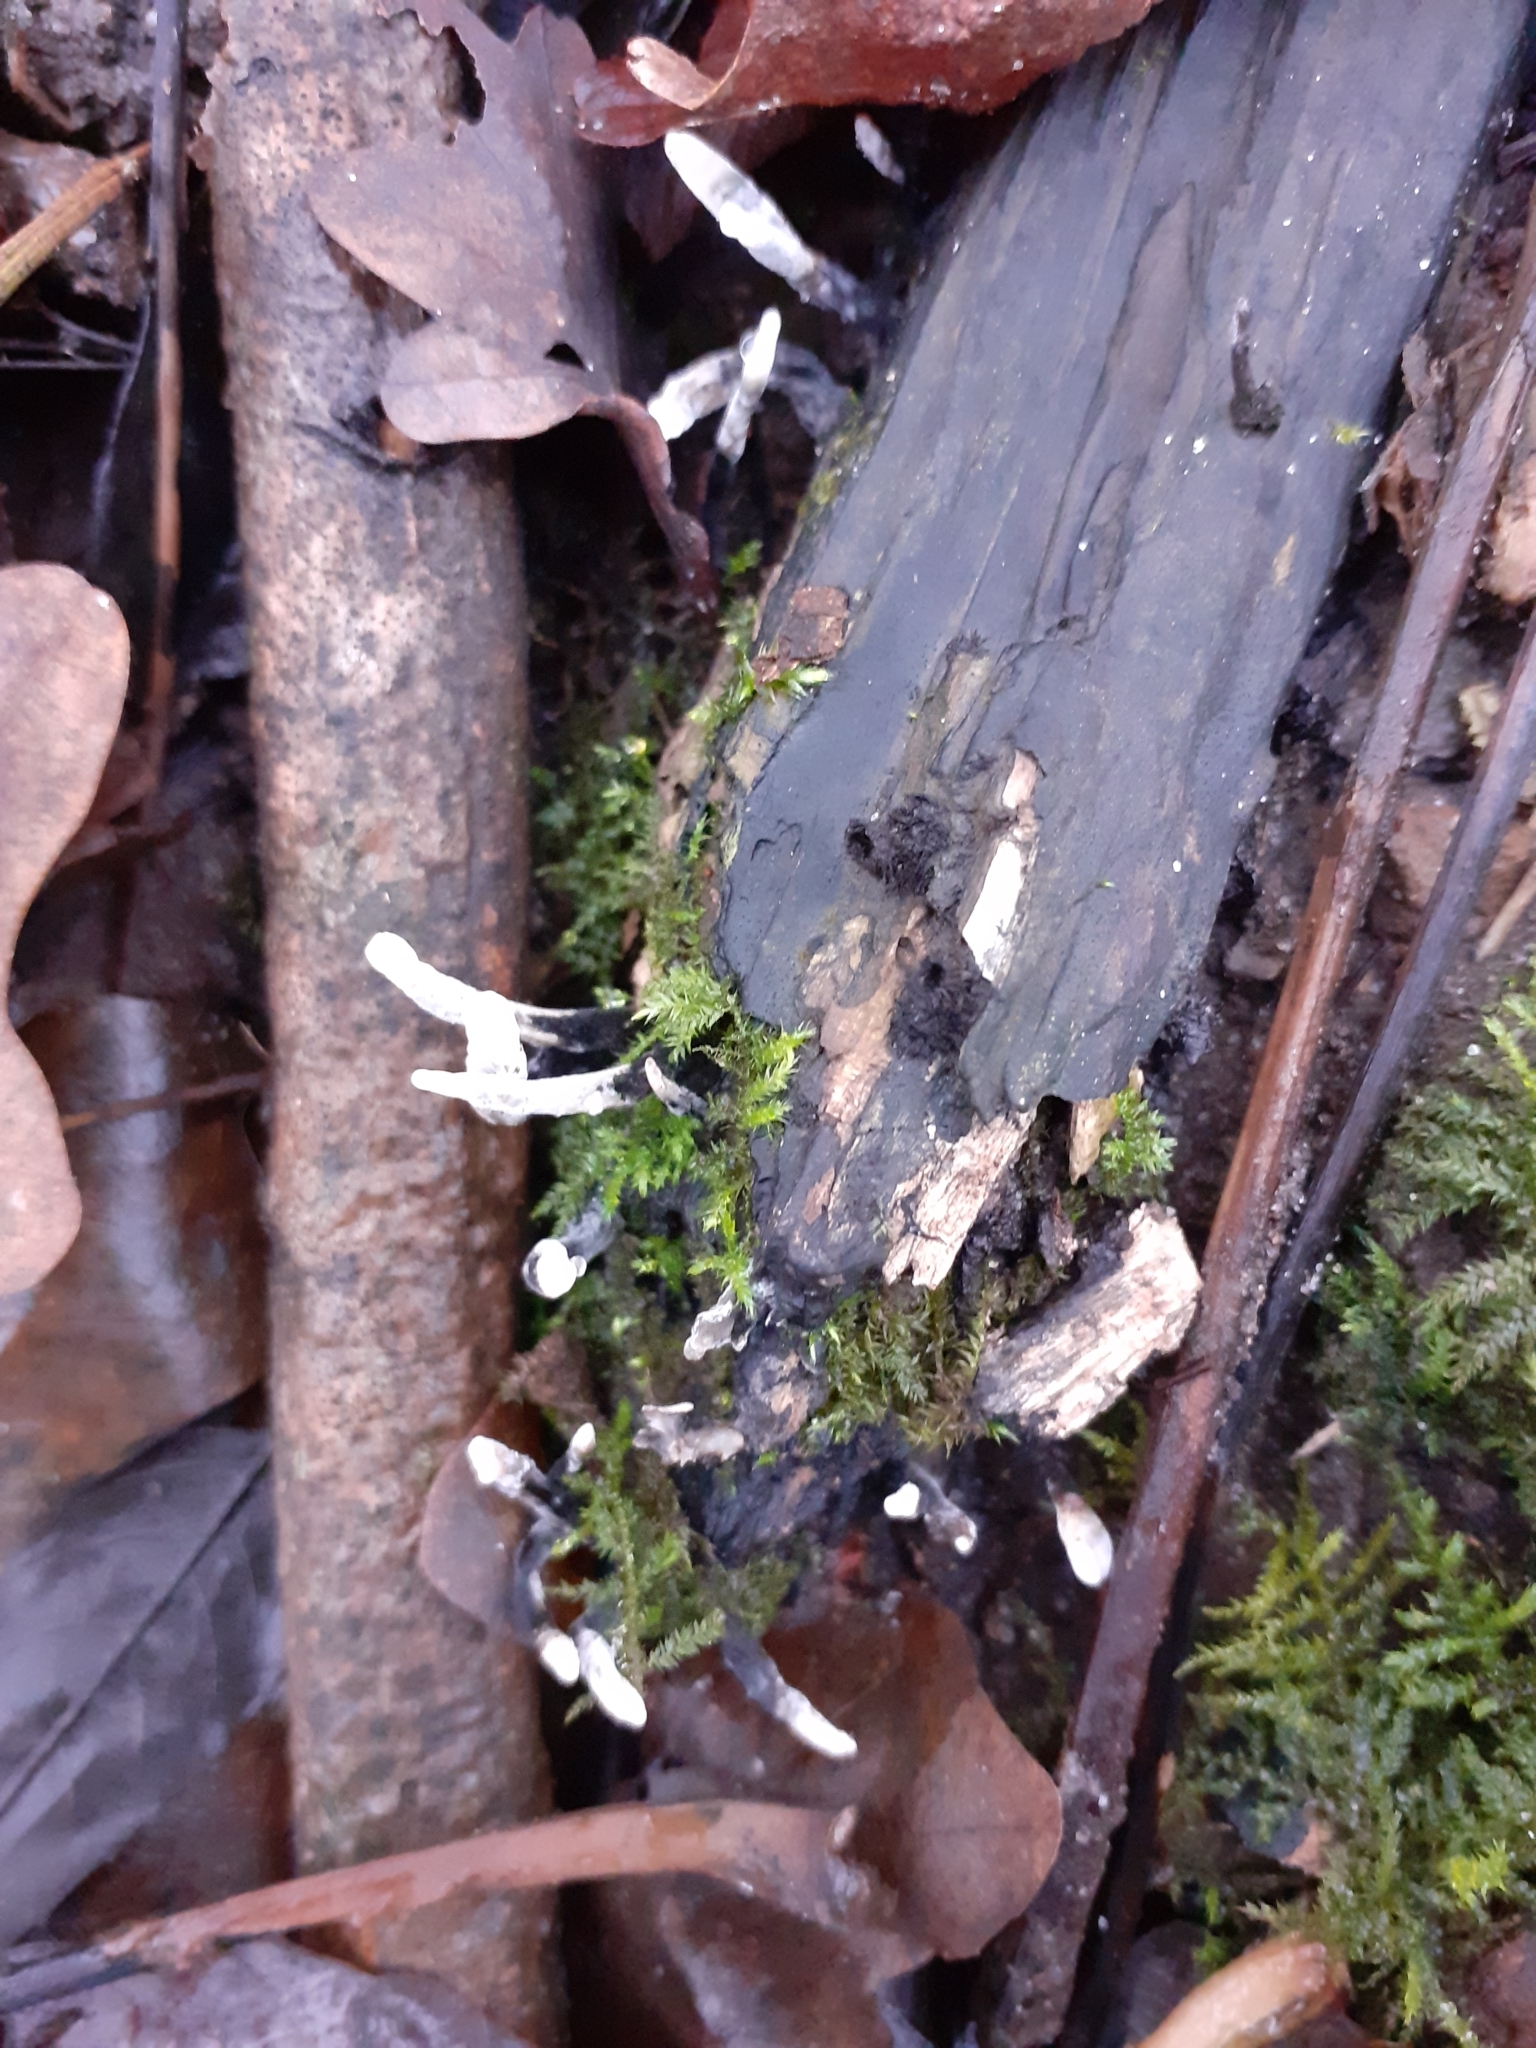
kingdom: Fungi
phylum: Ascomycota
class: Sordariomycetes
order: Xylariales
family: Xylariaceae
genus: Xylaria
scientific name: Xylaria hypoxylon
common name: Candle-snuff fungus
